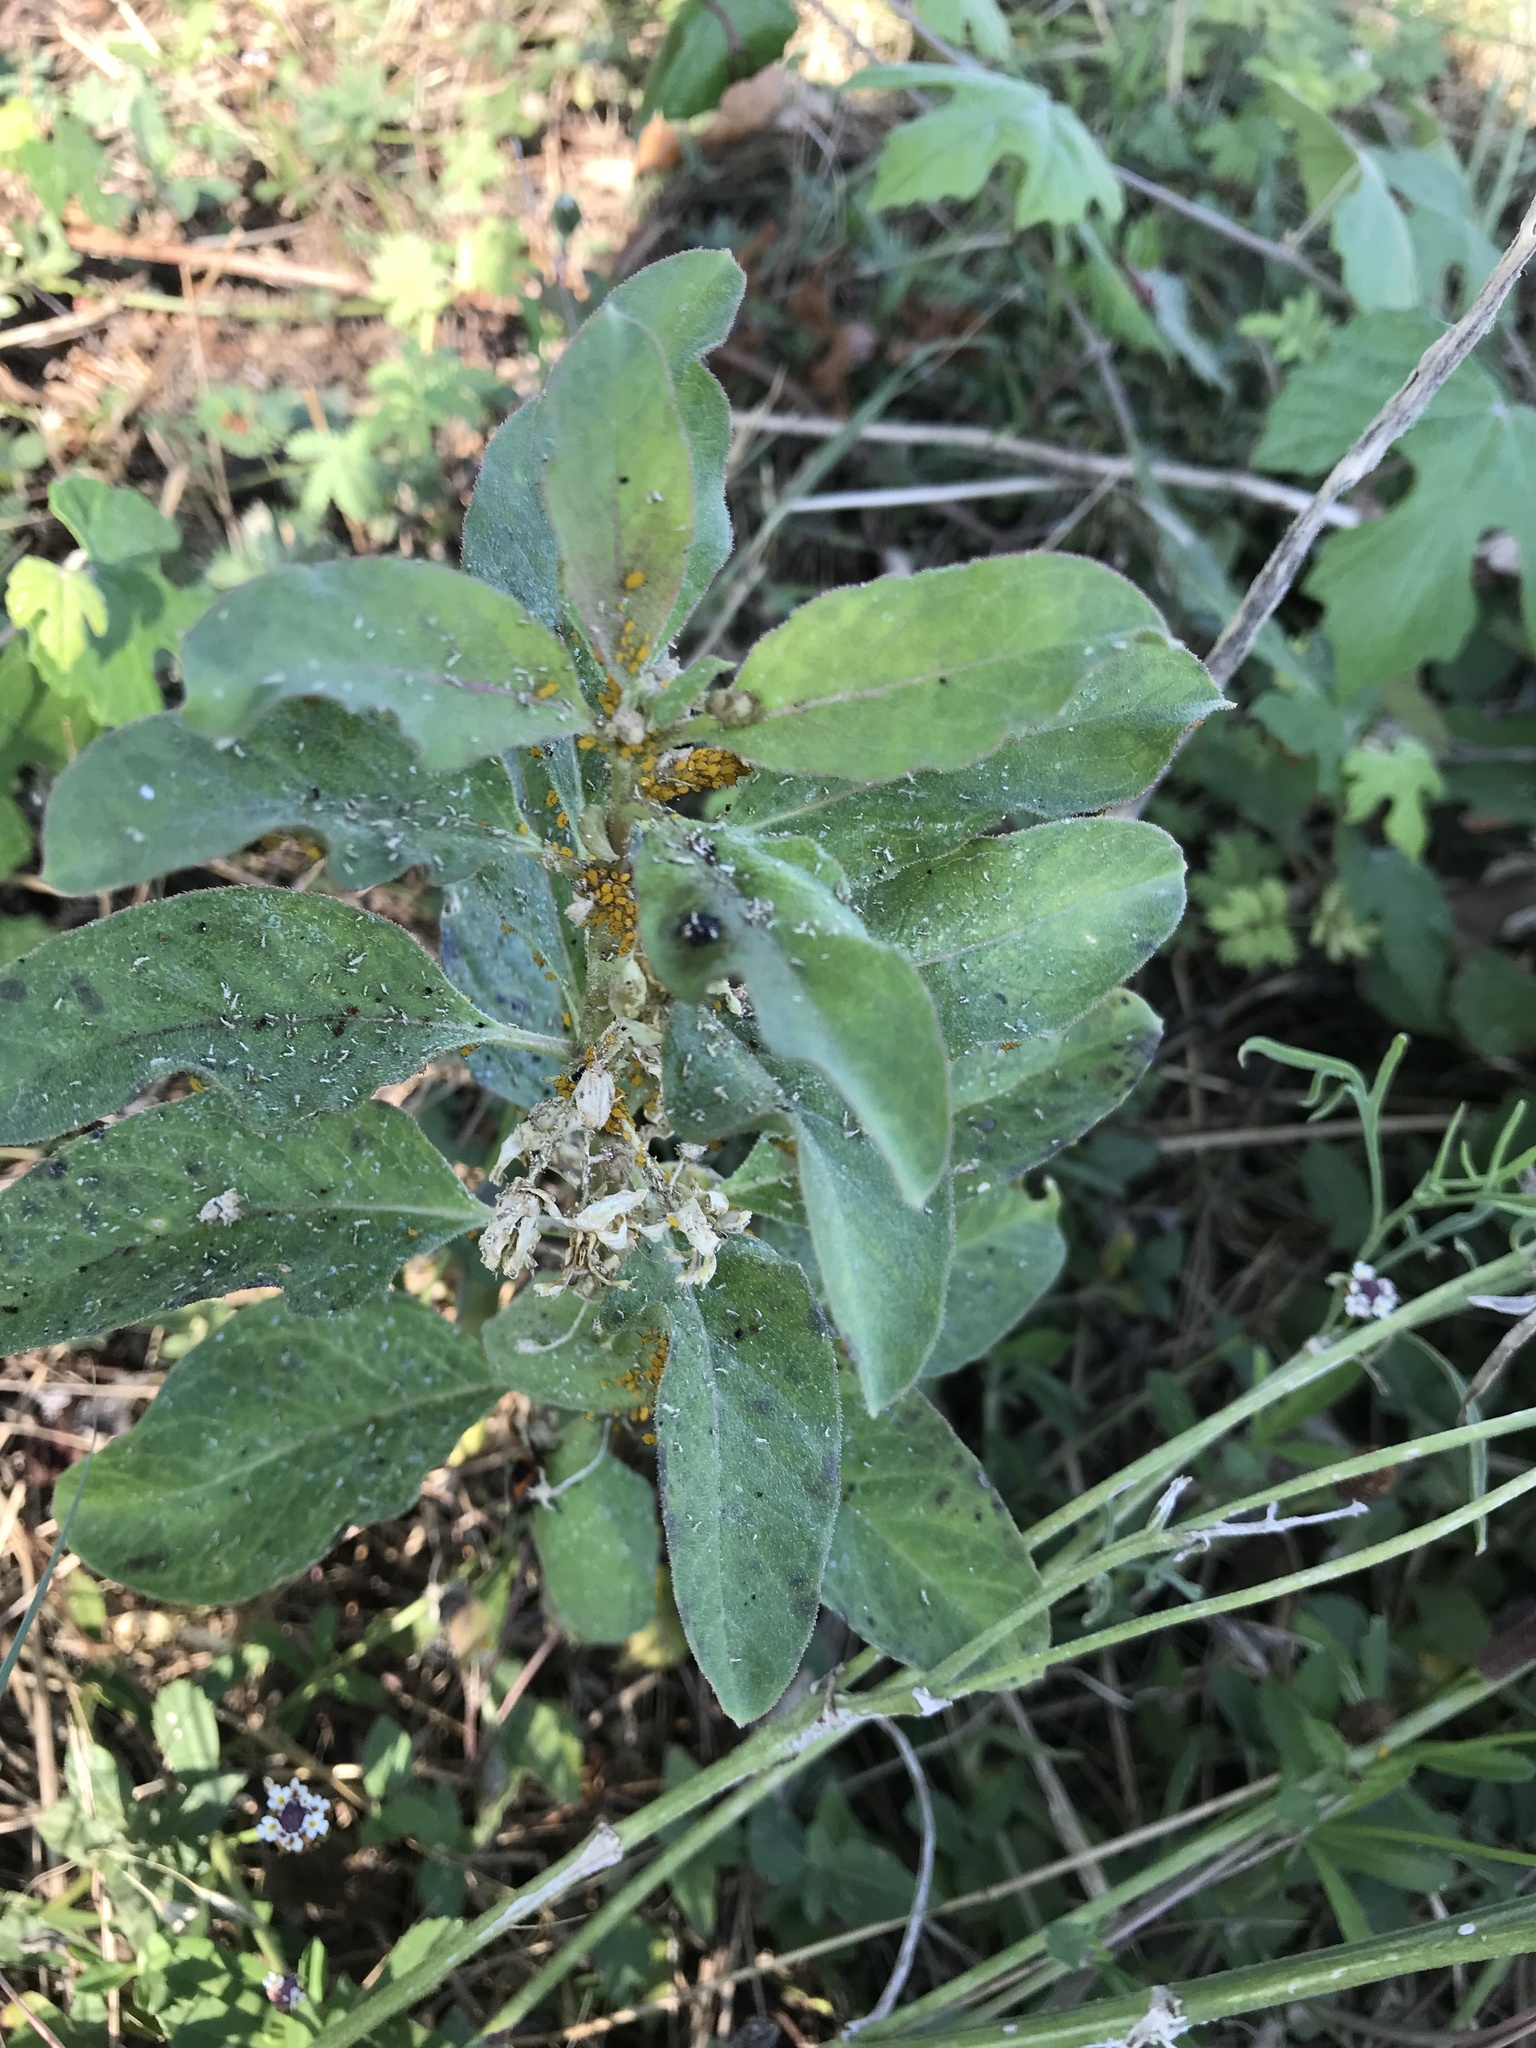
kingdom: Animalia
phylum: Arthropoda
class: Insecta
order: Hemiptera
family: Aphididae
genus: Aphis
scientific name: Aphis nerii
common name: Oleander aphid
